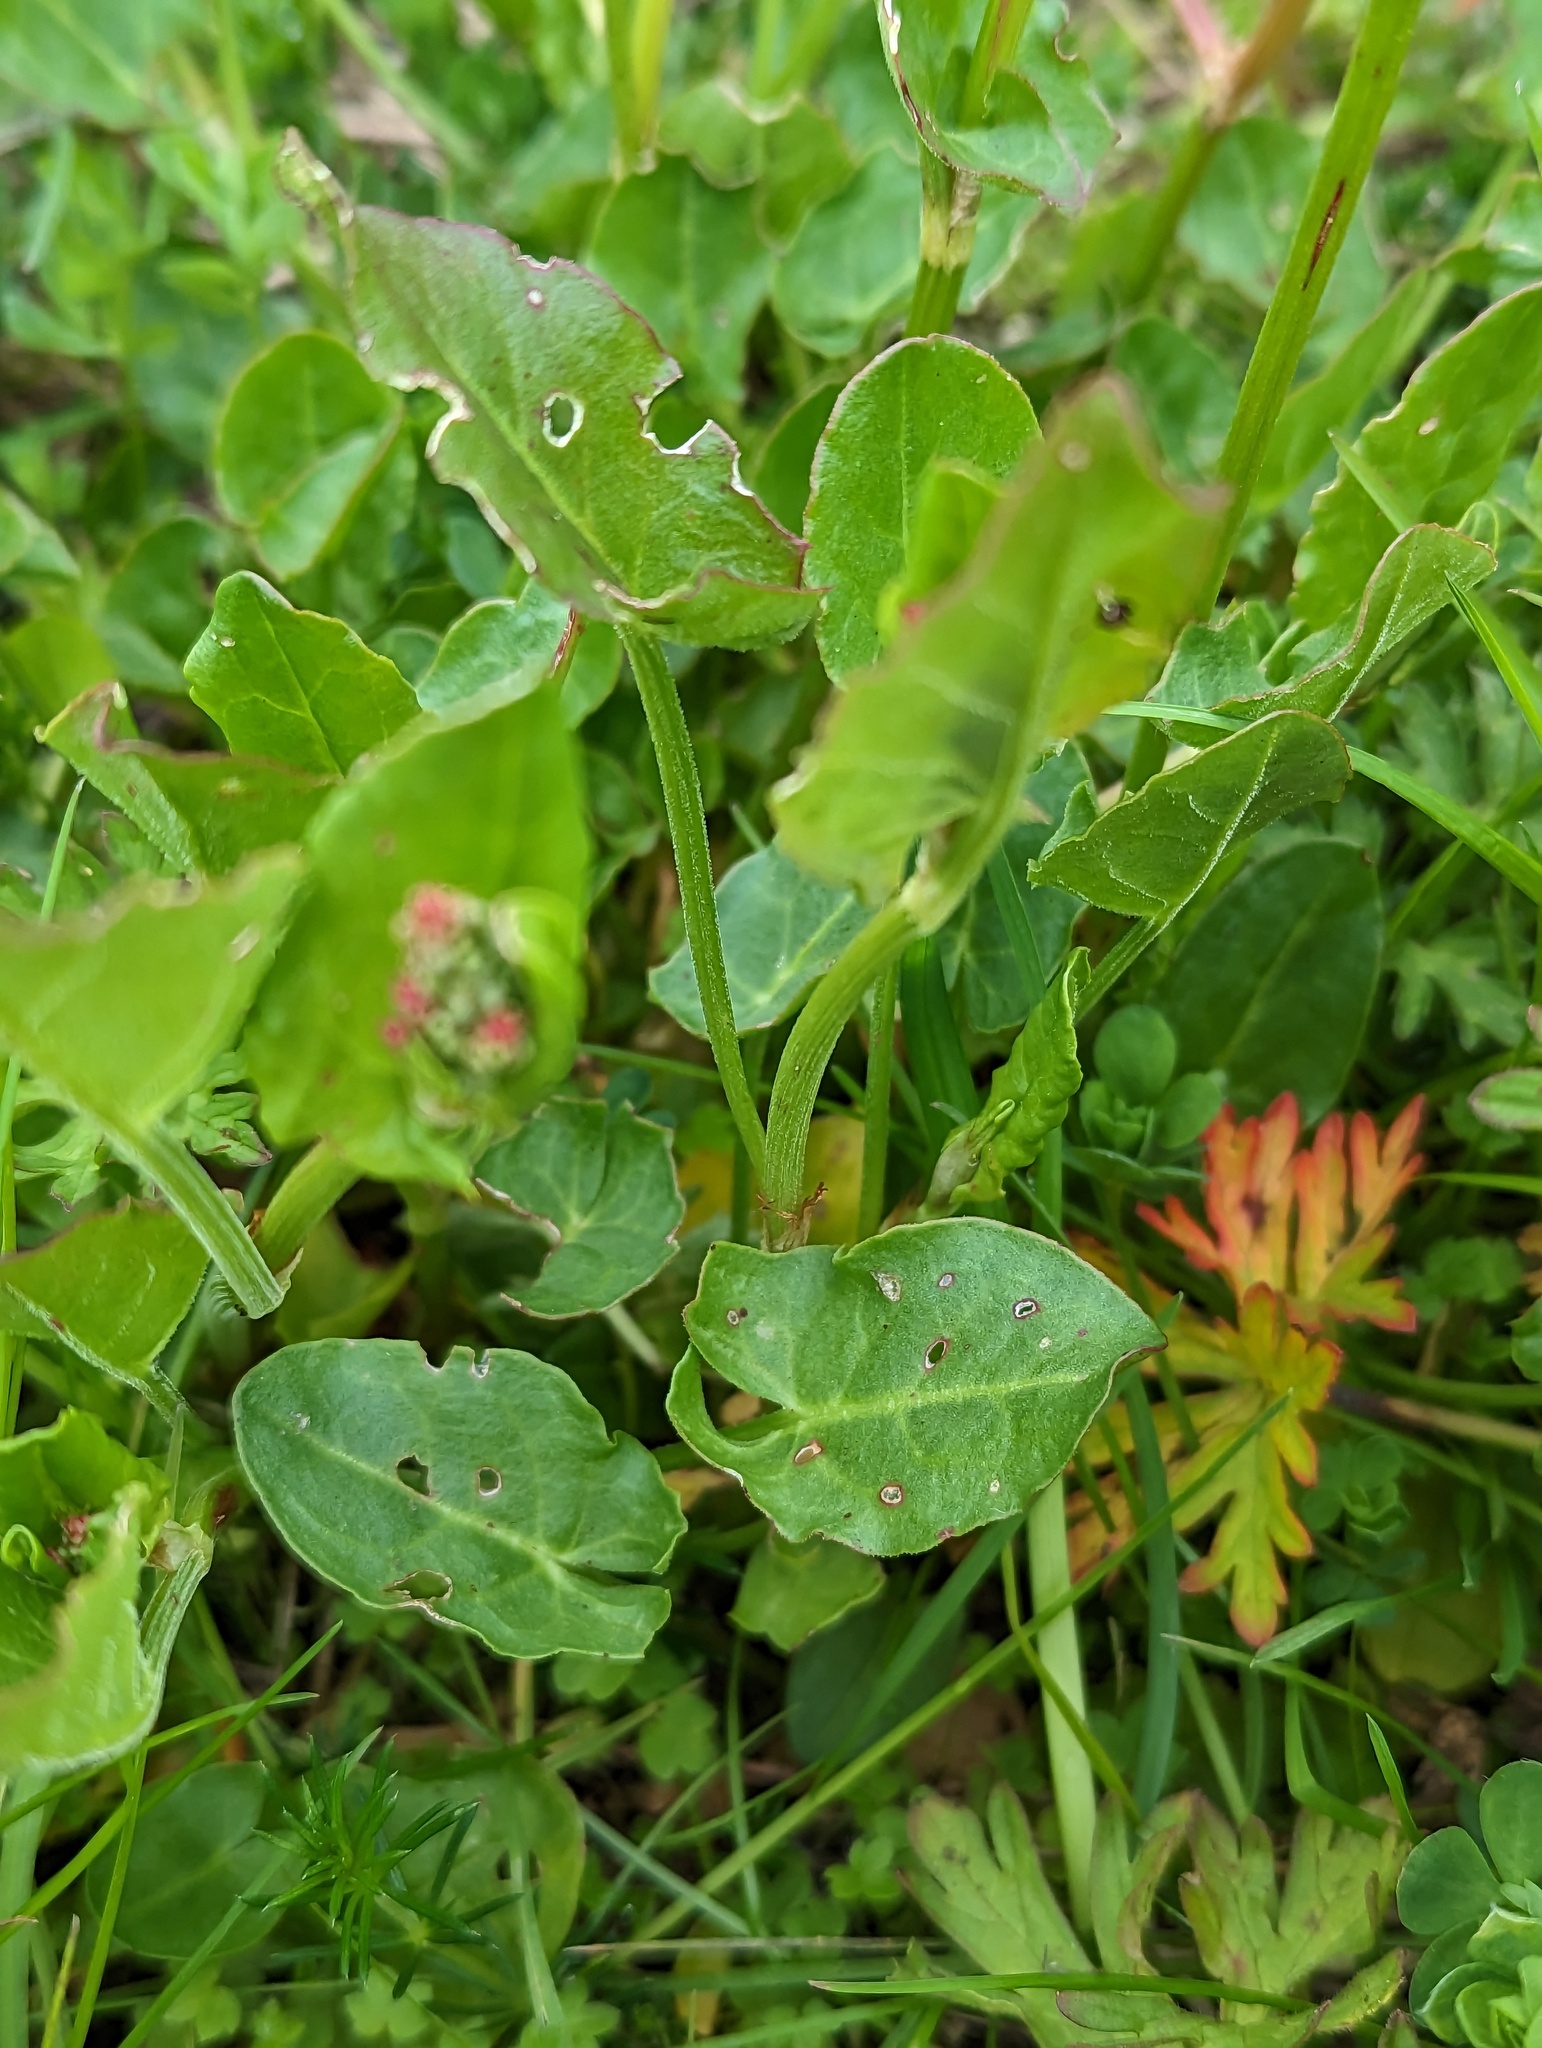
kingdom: Plantae
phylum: Tracheophyta
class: Magnoliopsida
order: Caryophyllales
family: Polygonaceae
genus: Rumex
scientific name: Rumex acetosa
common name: Garden sorrel
